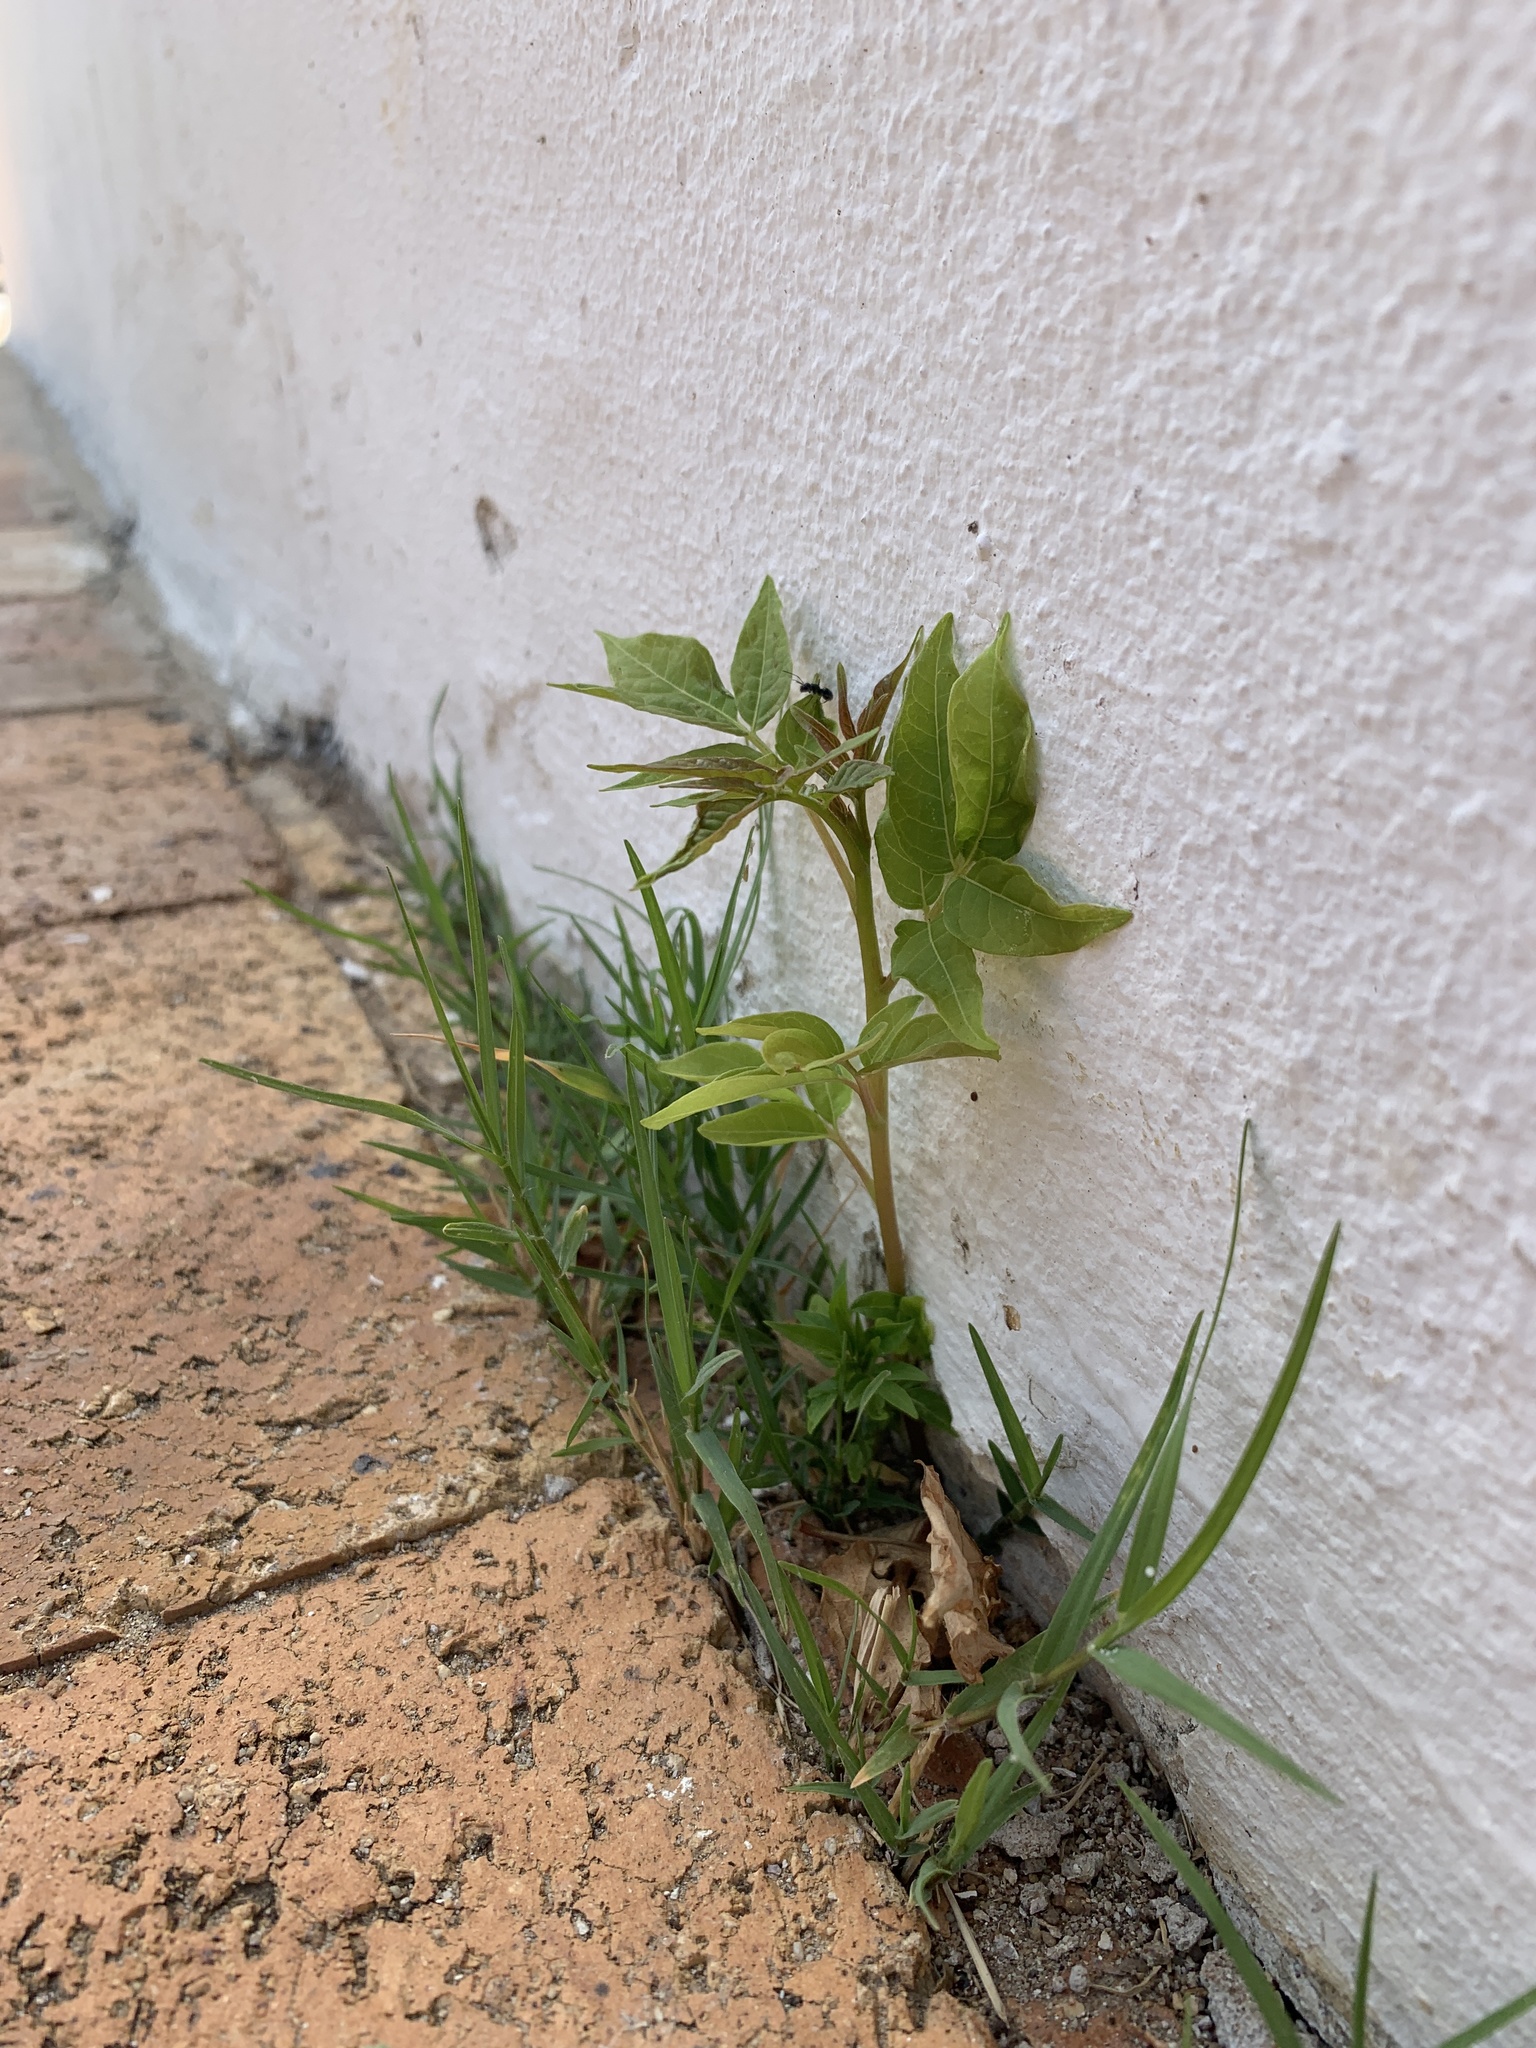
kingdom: Plantae
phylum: Tracheophyta
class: Magnoliopsida
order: Sapindales
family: Simaroubaceae
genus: Ailanthus
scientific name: Ailanthus altissima
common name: Tree-of-heaven
